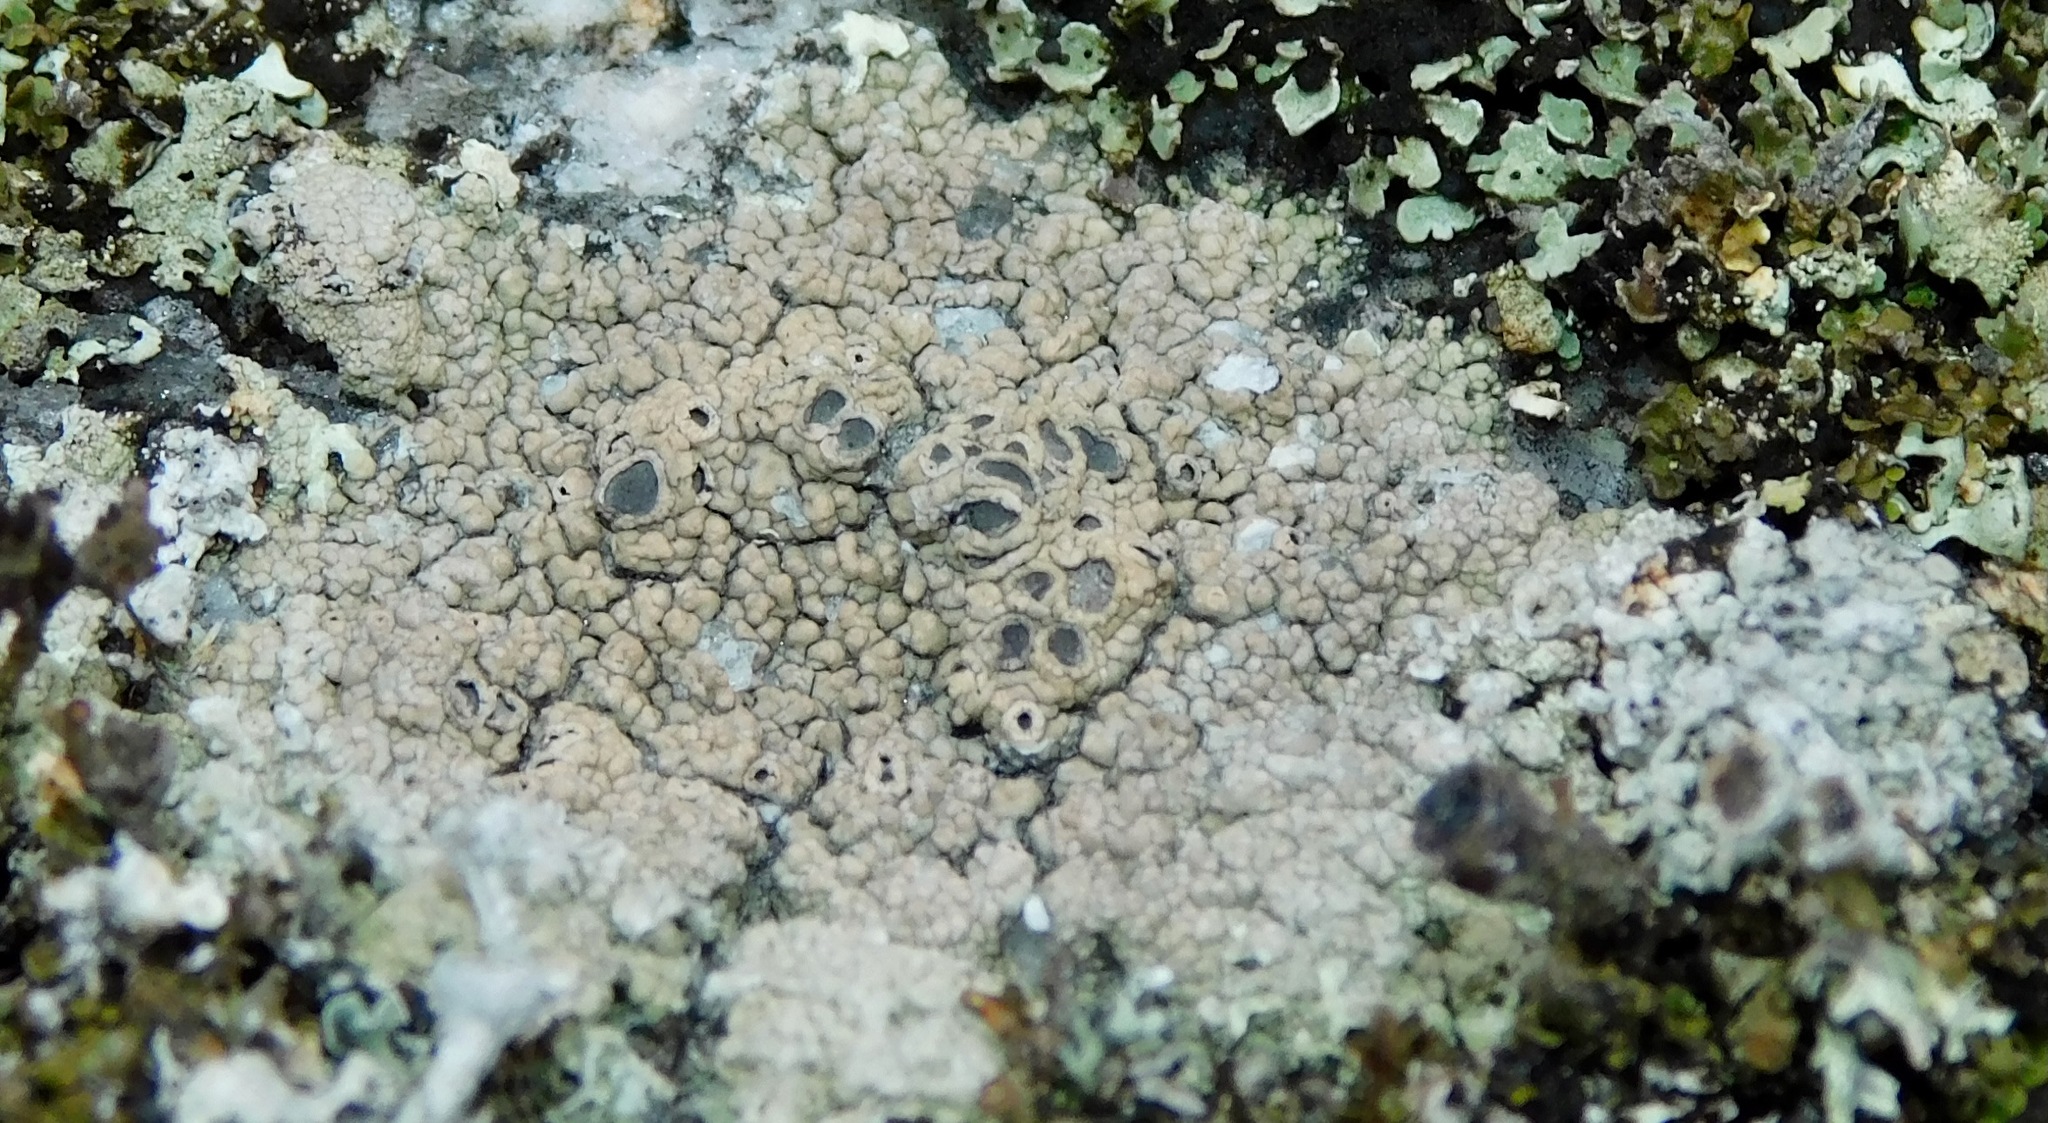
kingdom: Fungi
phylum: Ascomycota
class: Lecanoromycetes
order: Ostropales
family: Graphidaceae
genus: Diploschistes
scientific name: Diploschistes scruposus
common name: Crater lichen
